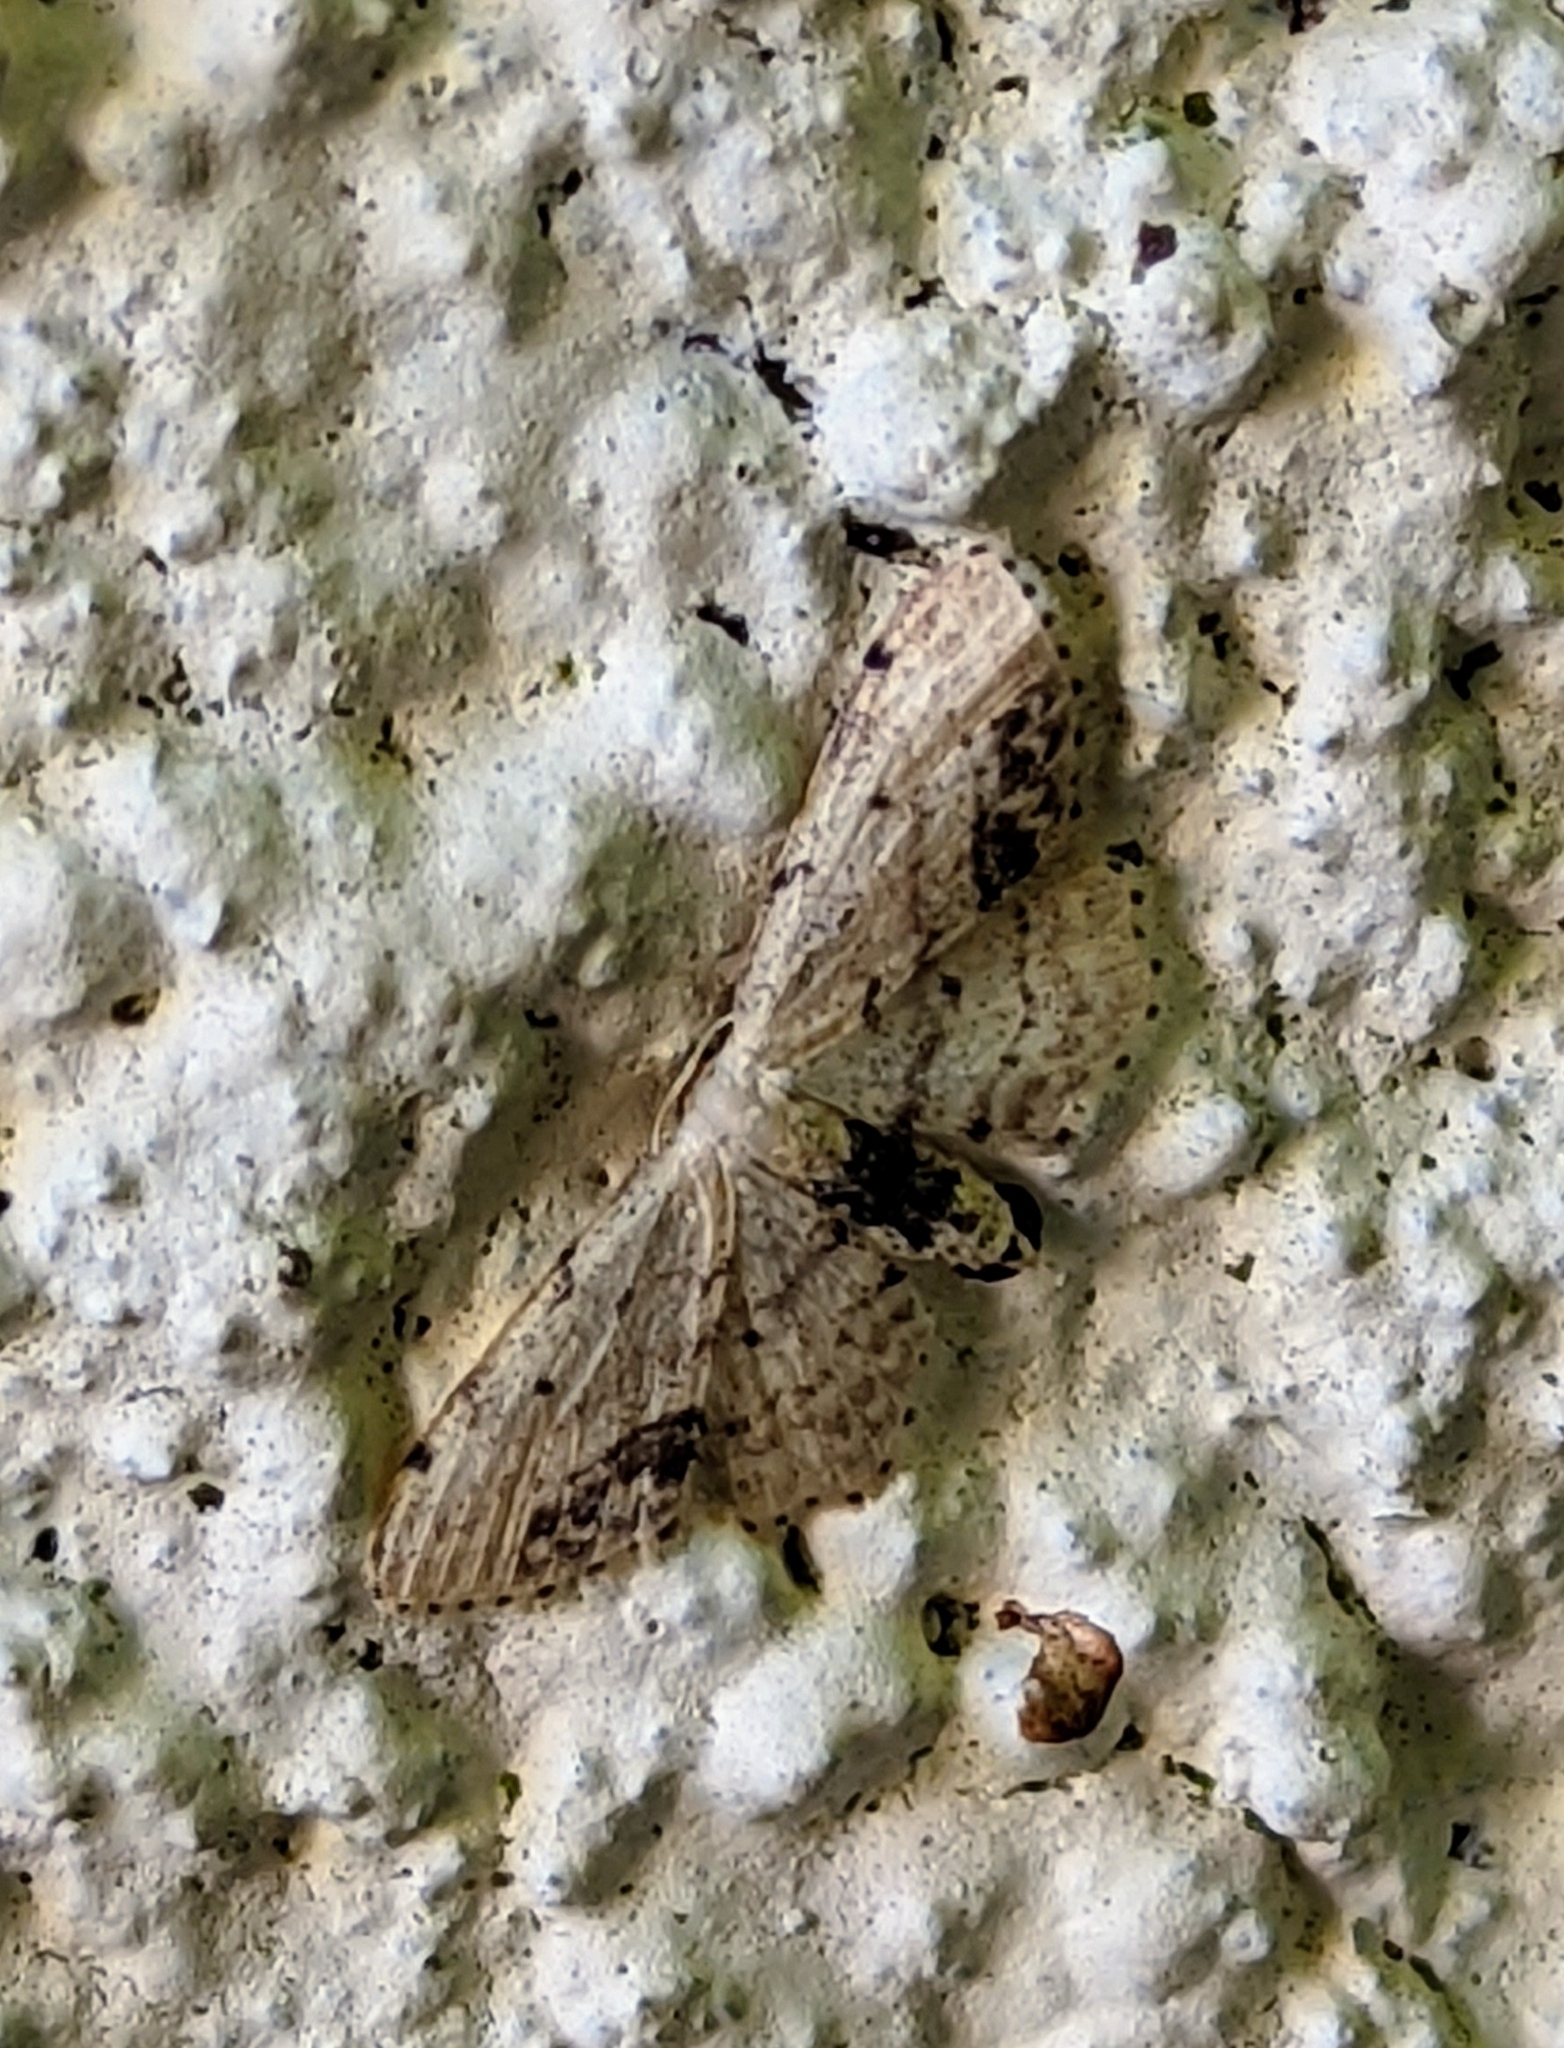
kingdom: Animalia
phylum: Arthropoda
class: Insecta
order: Lepidoptera
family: Geometridae
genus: Idaea
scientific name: Idaea dimidiata
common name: Single-dotted wave
